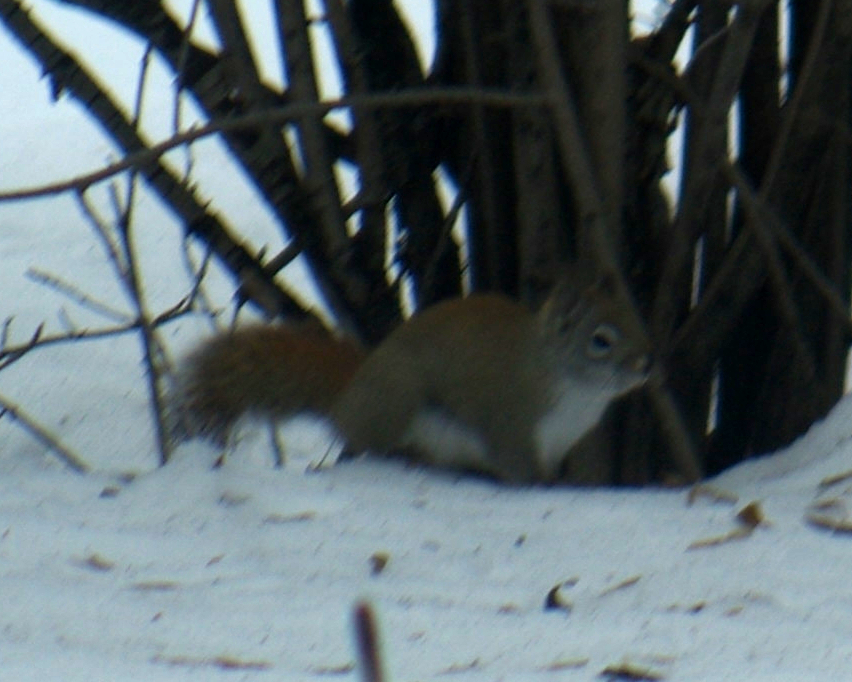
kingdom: Animalia
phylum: Chordata
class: Mammalia
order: Rodentia
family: Sciuridae
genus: Tamiasciurus
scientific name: Tamiasciurus hudsonicus
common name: Red squirrel
